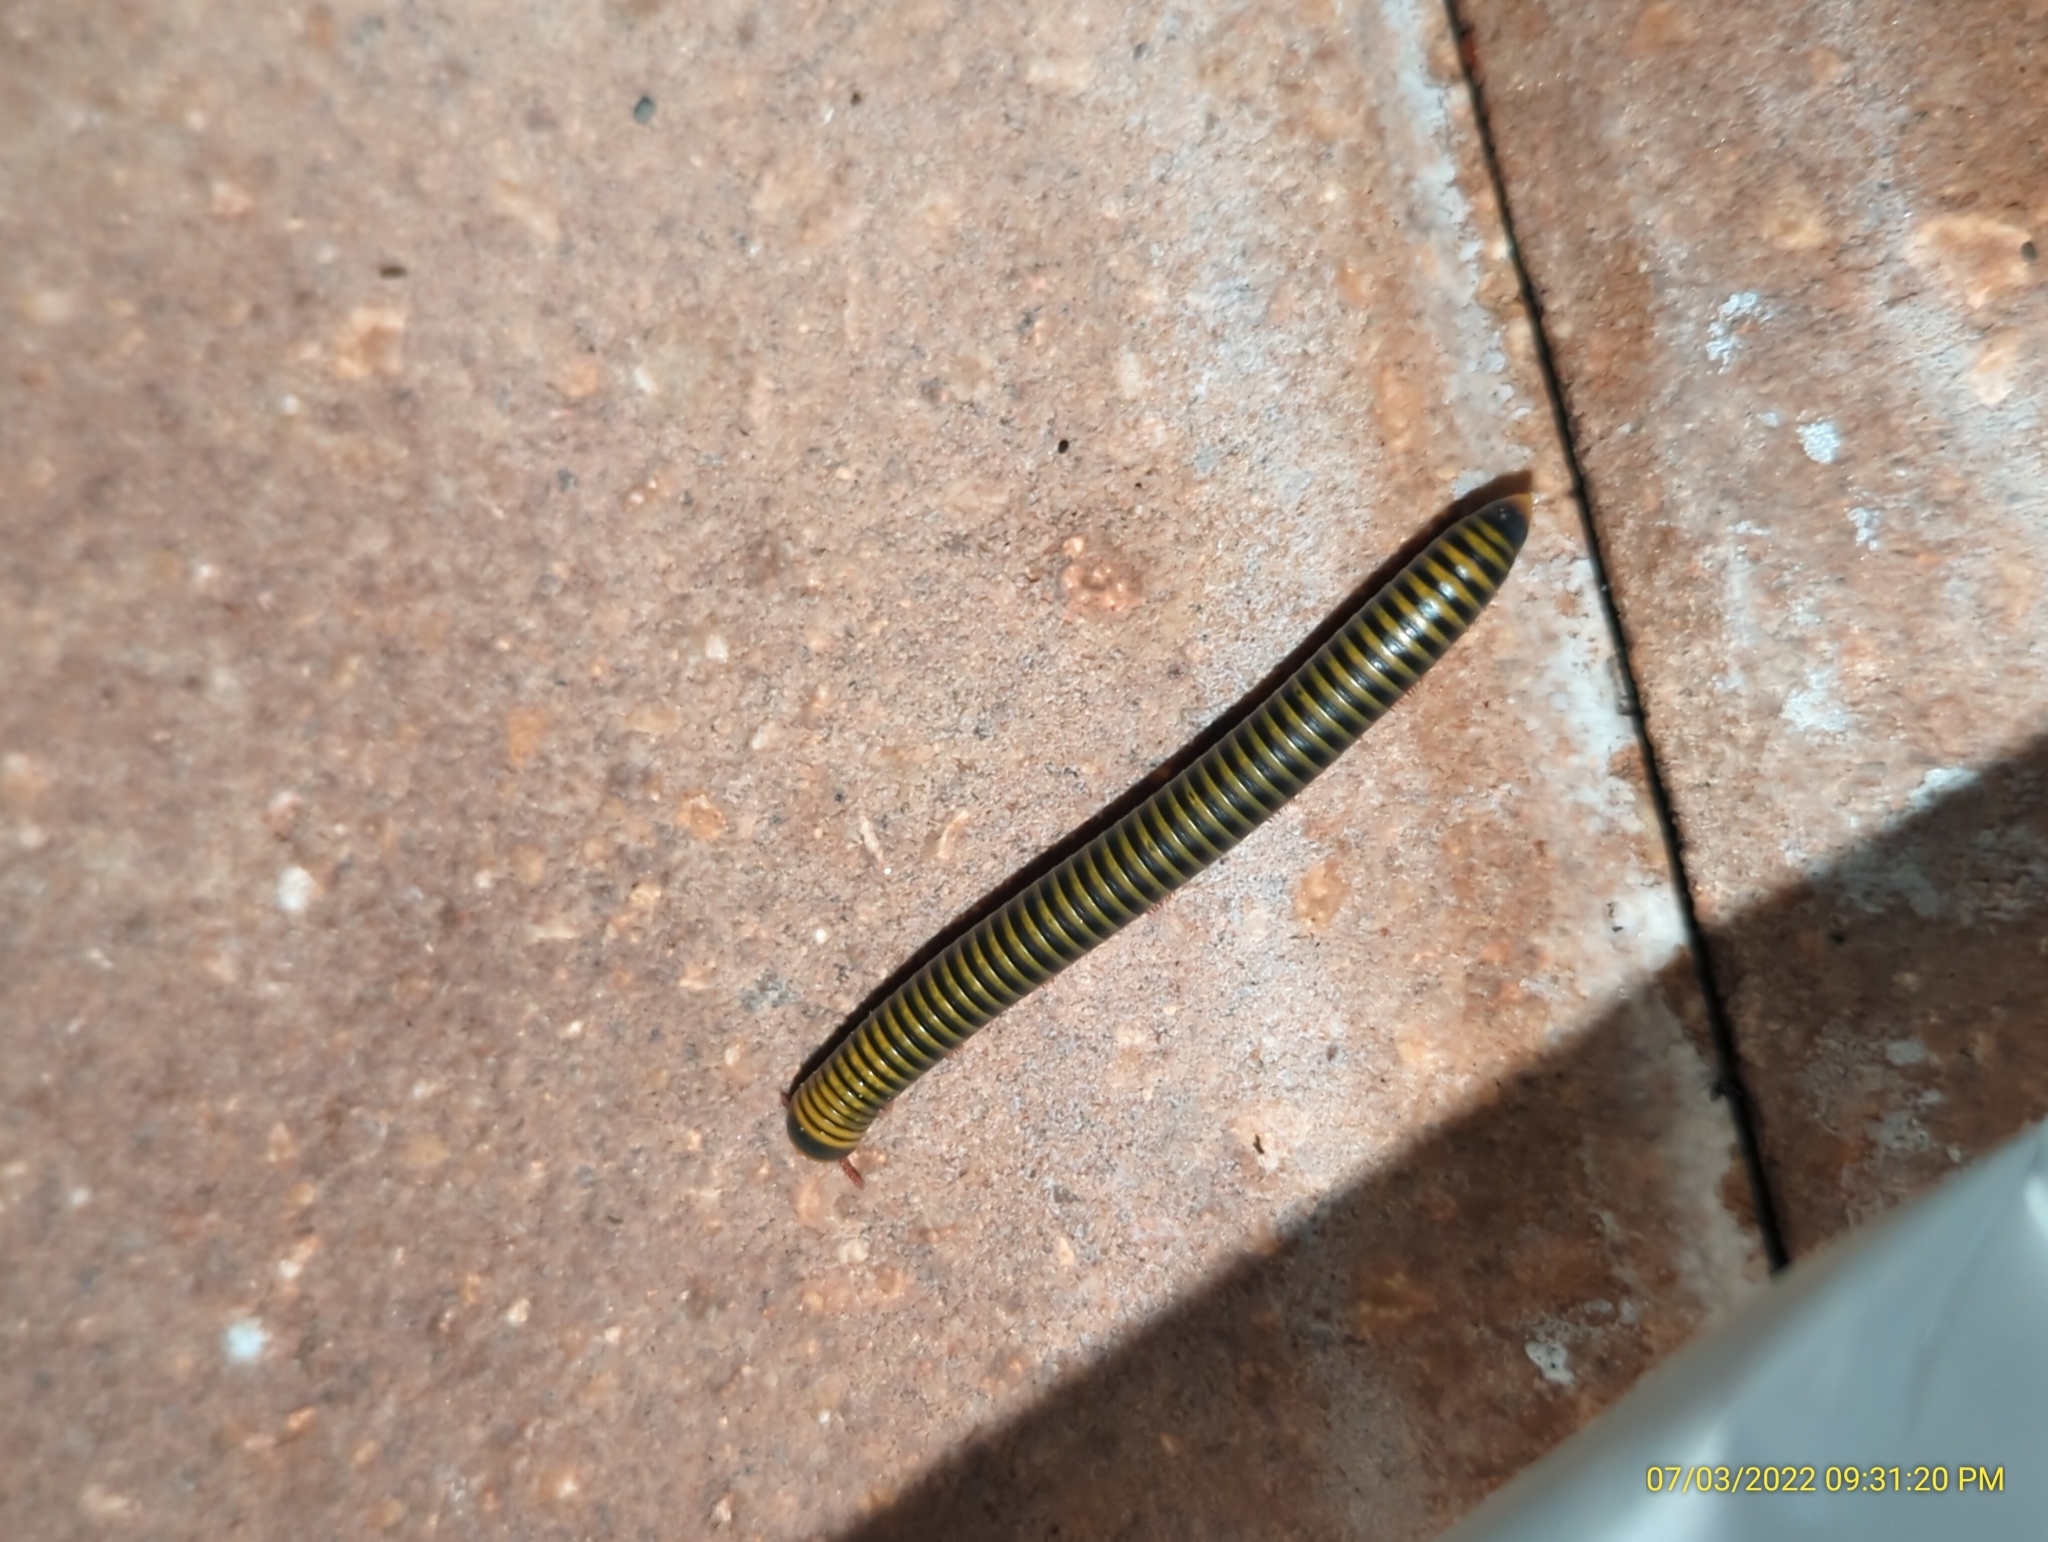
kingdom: Animalia
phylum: Arthropoda
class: Diplopoda
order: Spirobolida
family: Rhinocricidae
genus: Anadenobolus
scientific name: Anadenobolus monilicornis
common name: Caribbean millipede
